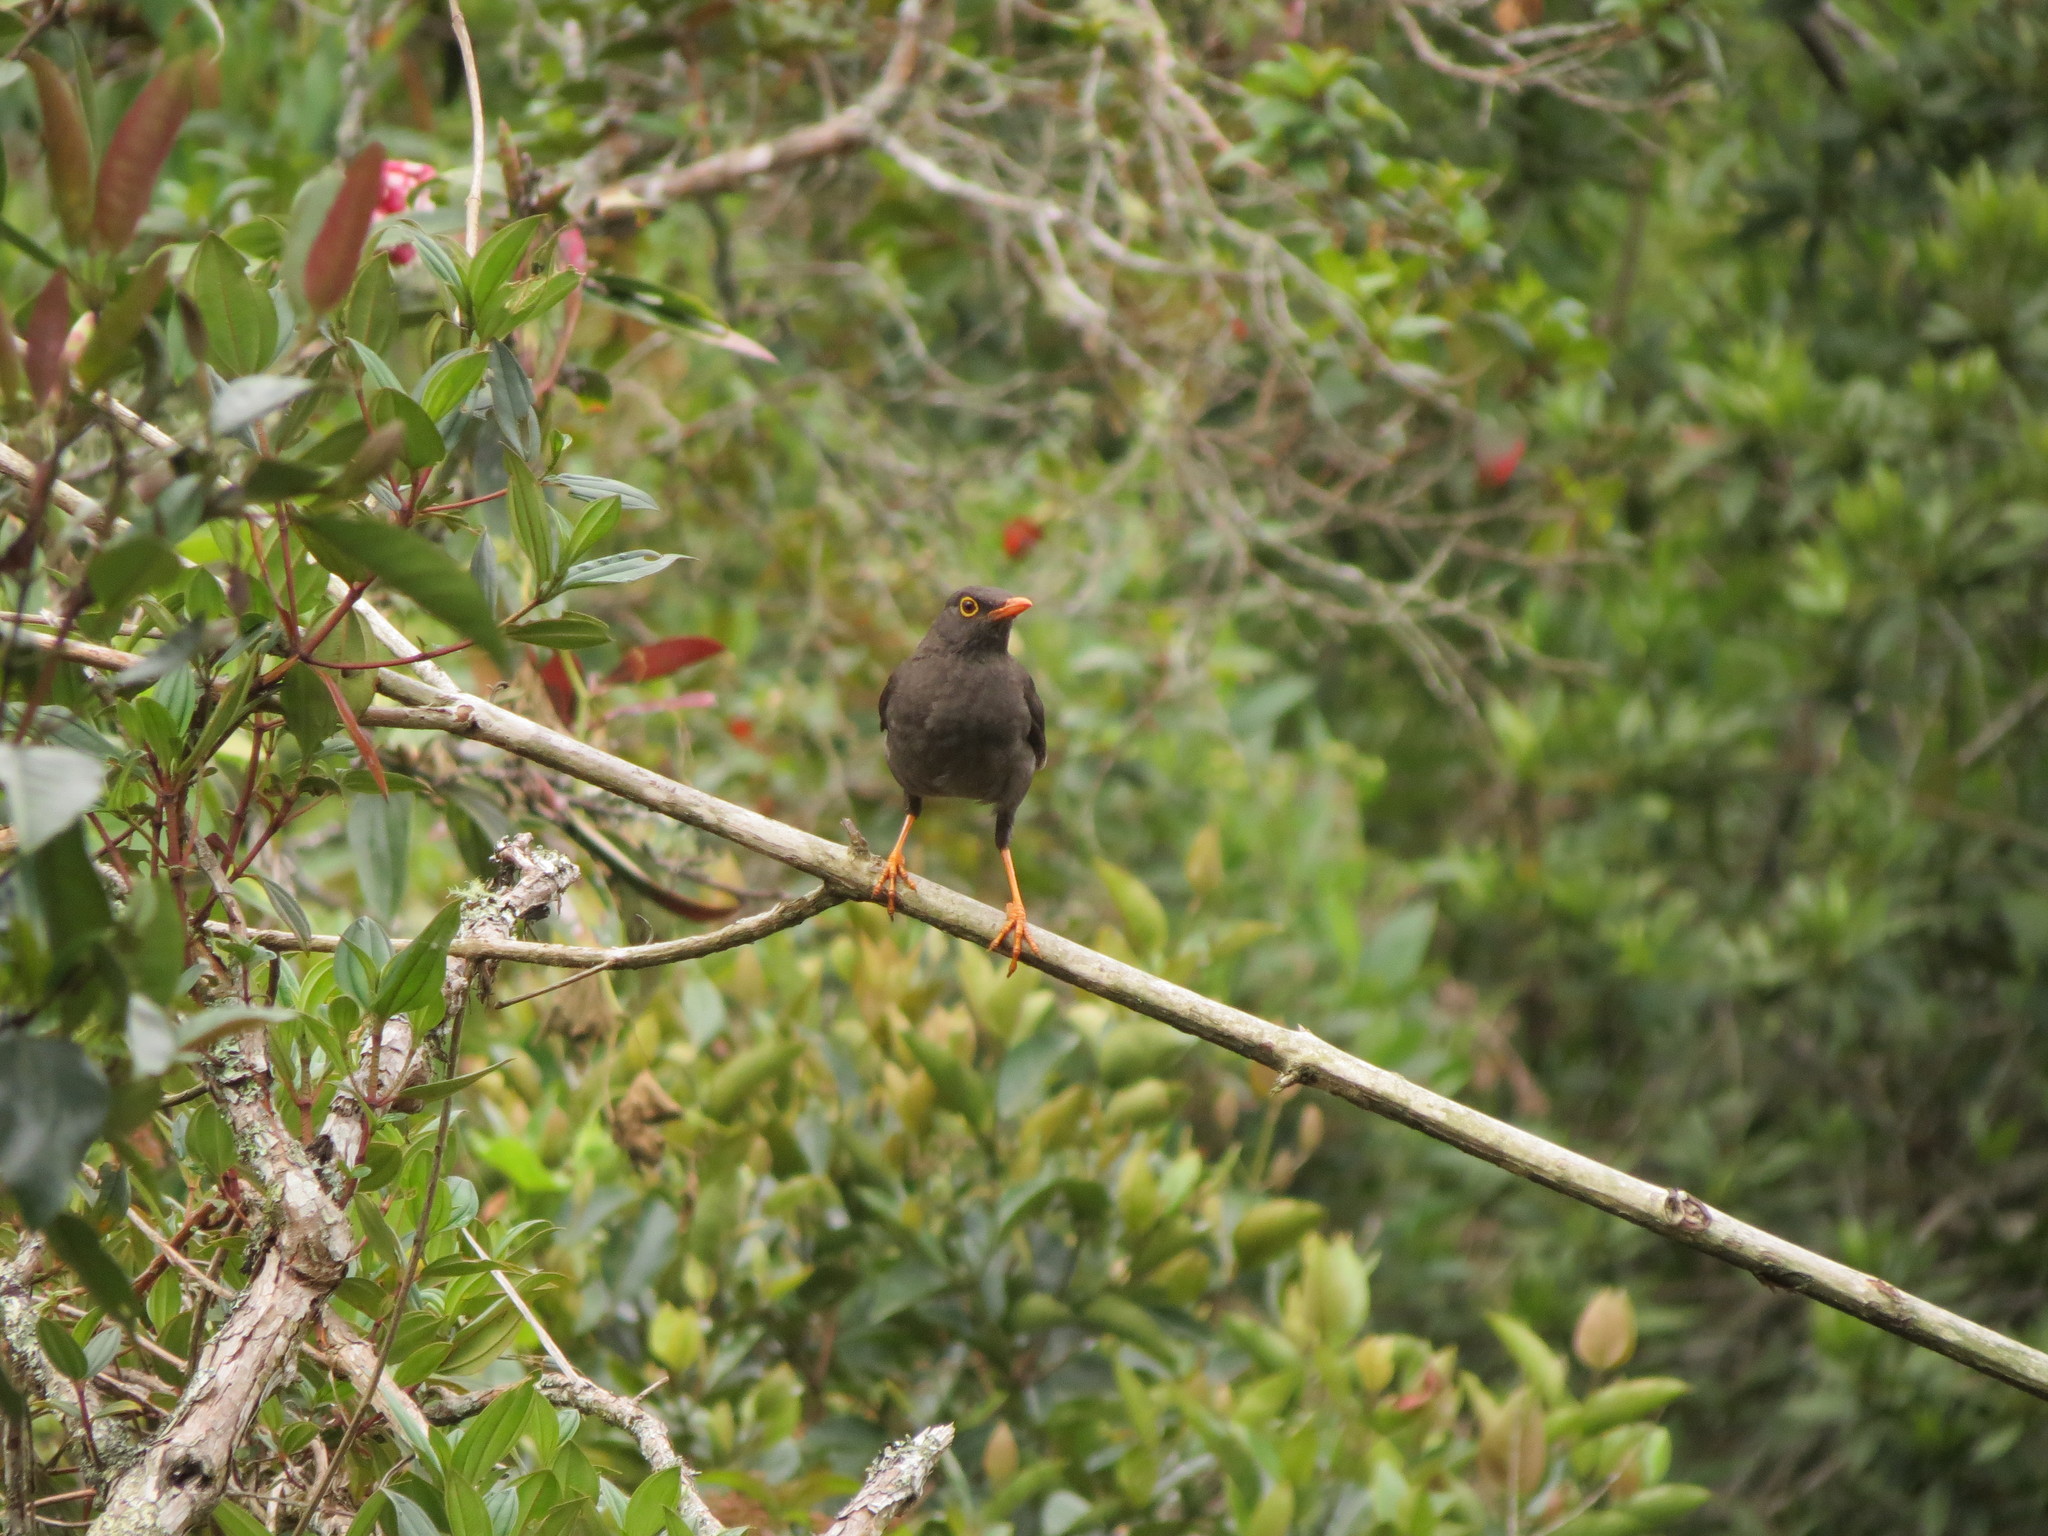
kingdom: Animalia
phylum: Chordata
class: Aves
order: Passeriformes
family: Turdidae
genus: Turdus
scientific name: Turdus fuscater
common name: Great thrush
